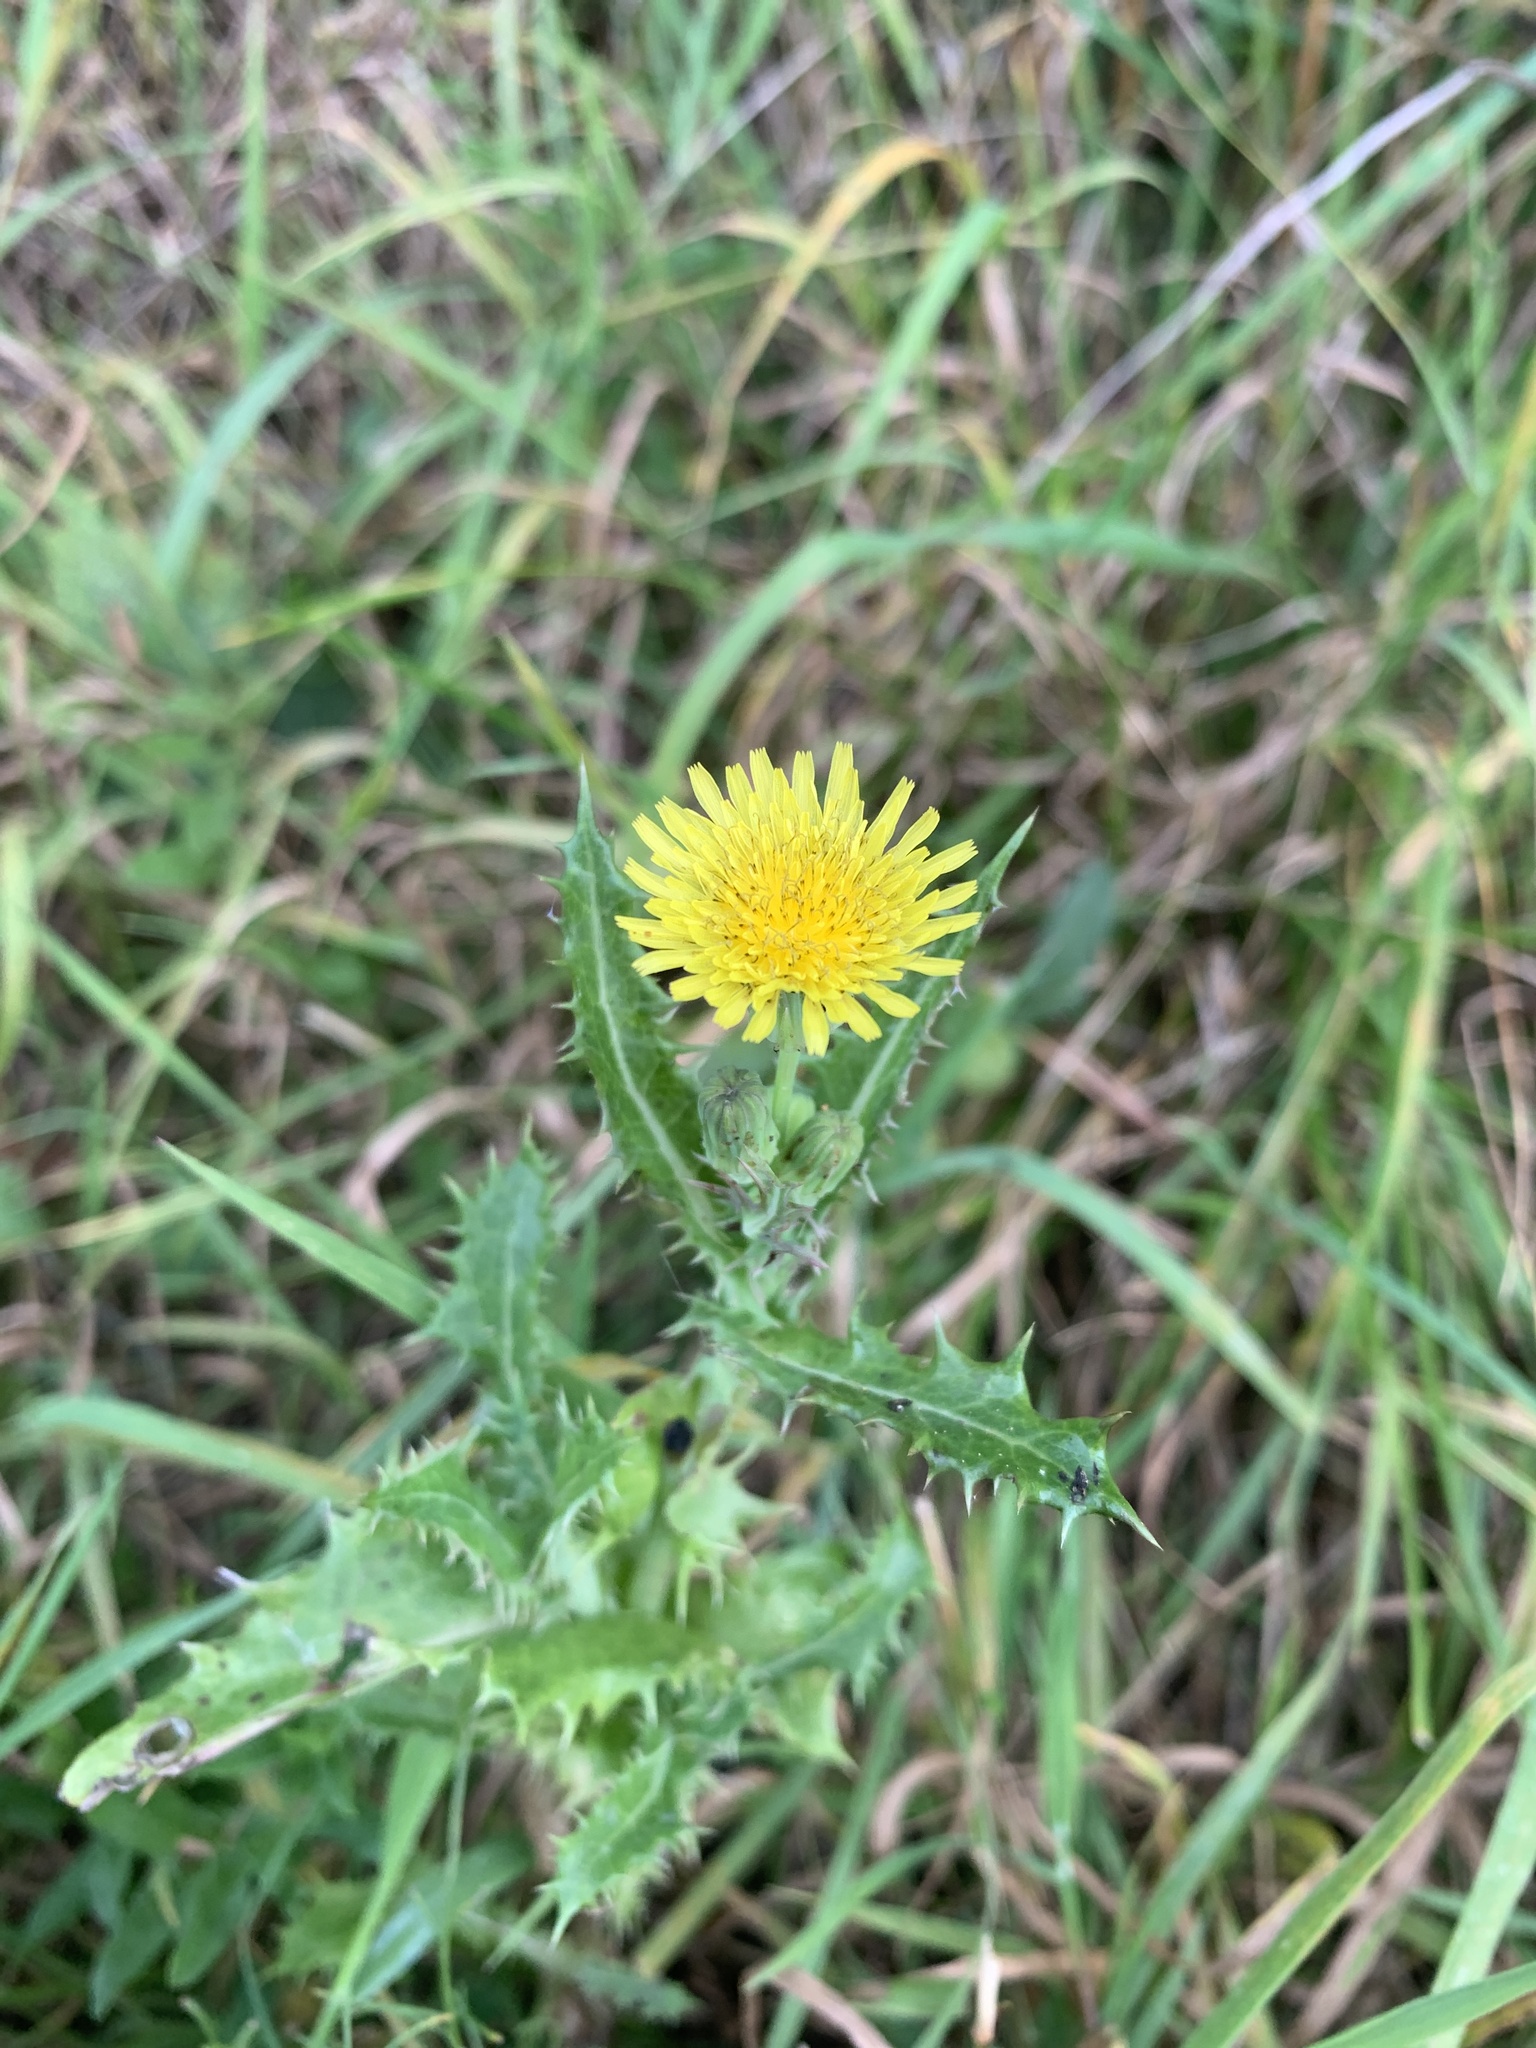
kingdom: Plantae
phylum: Tracheophyta
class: Magnoliopsida
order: Asterales
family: Asteraceae
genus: Sonchus
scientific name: Sonchus asper
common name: Prickly sow-thistle
